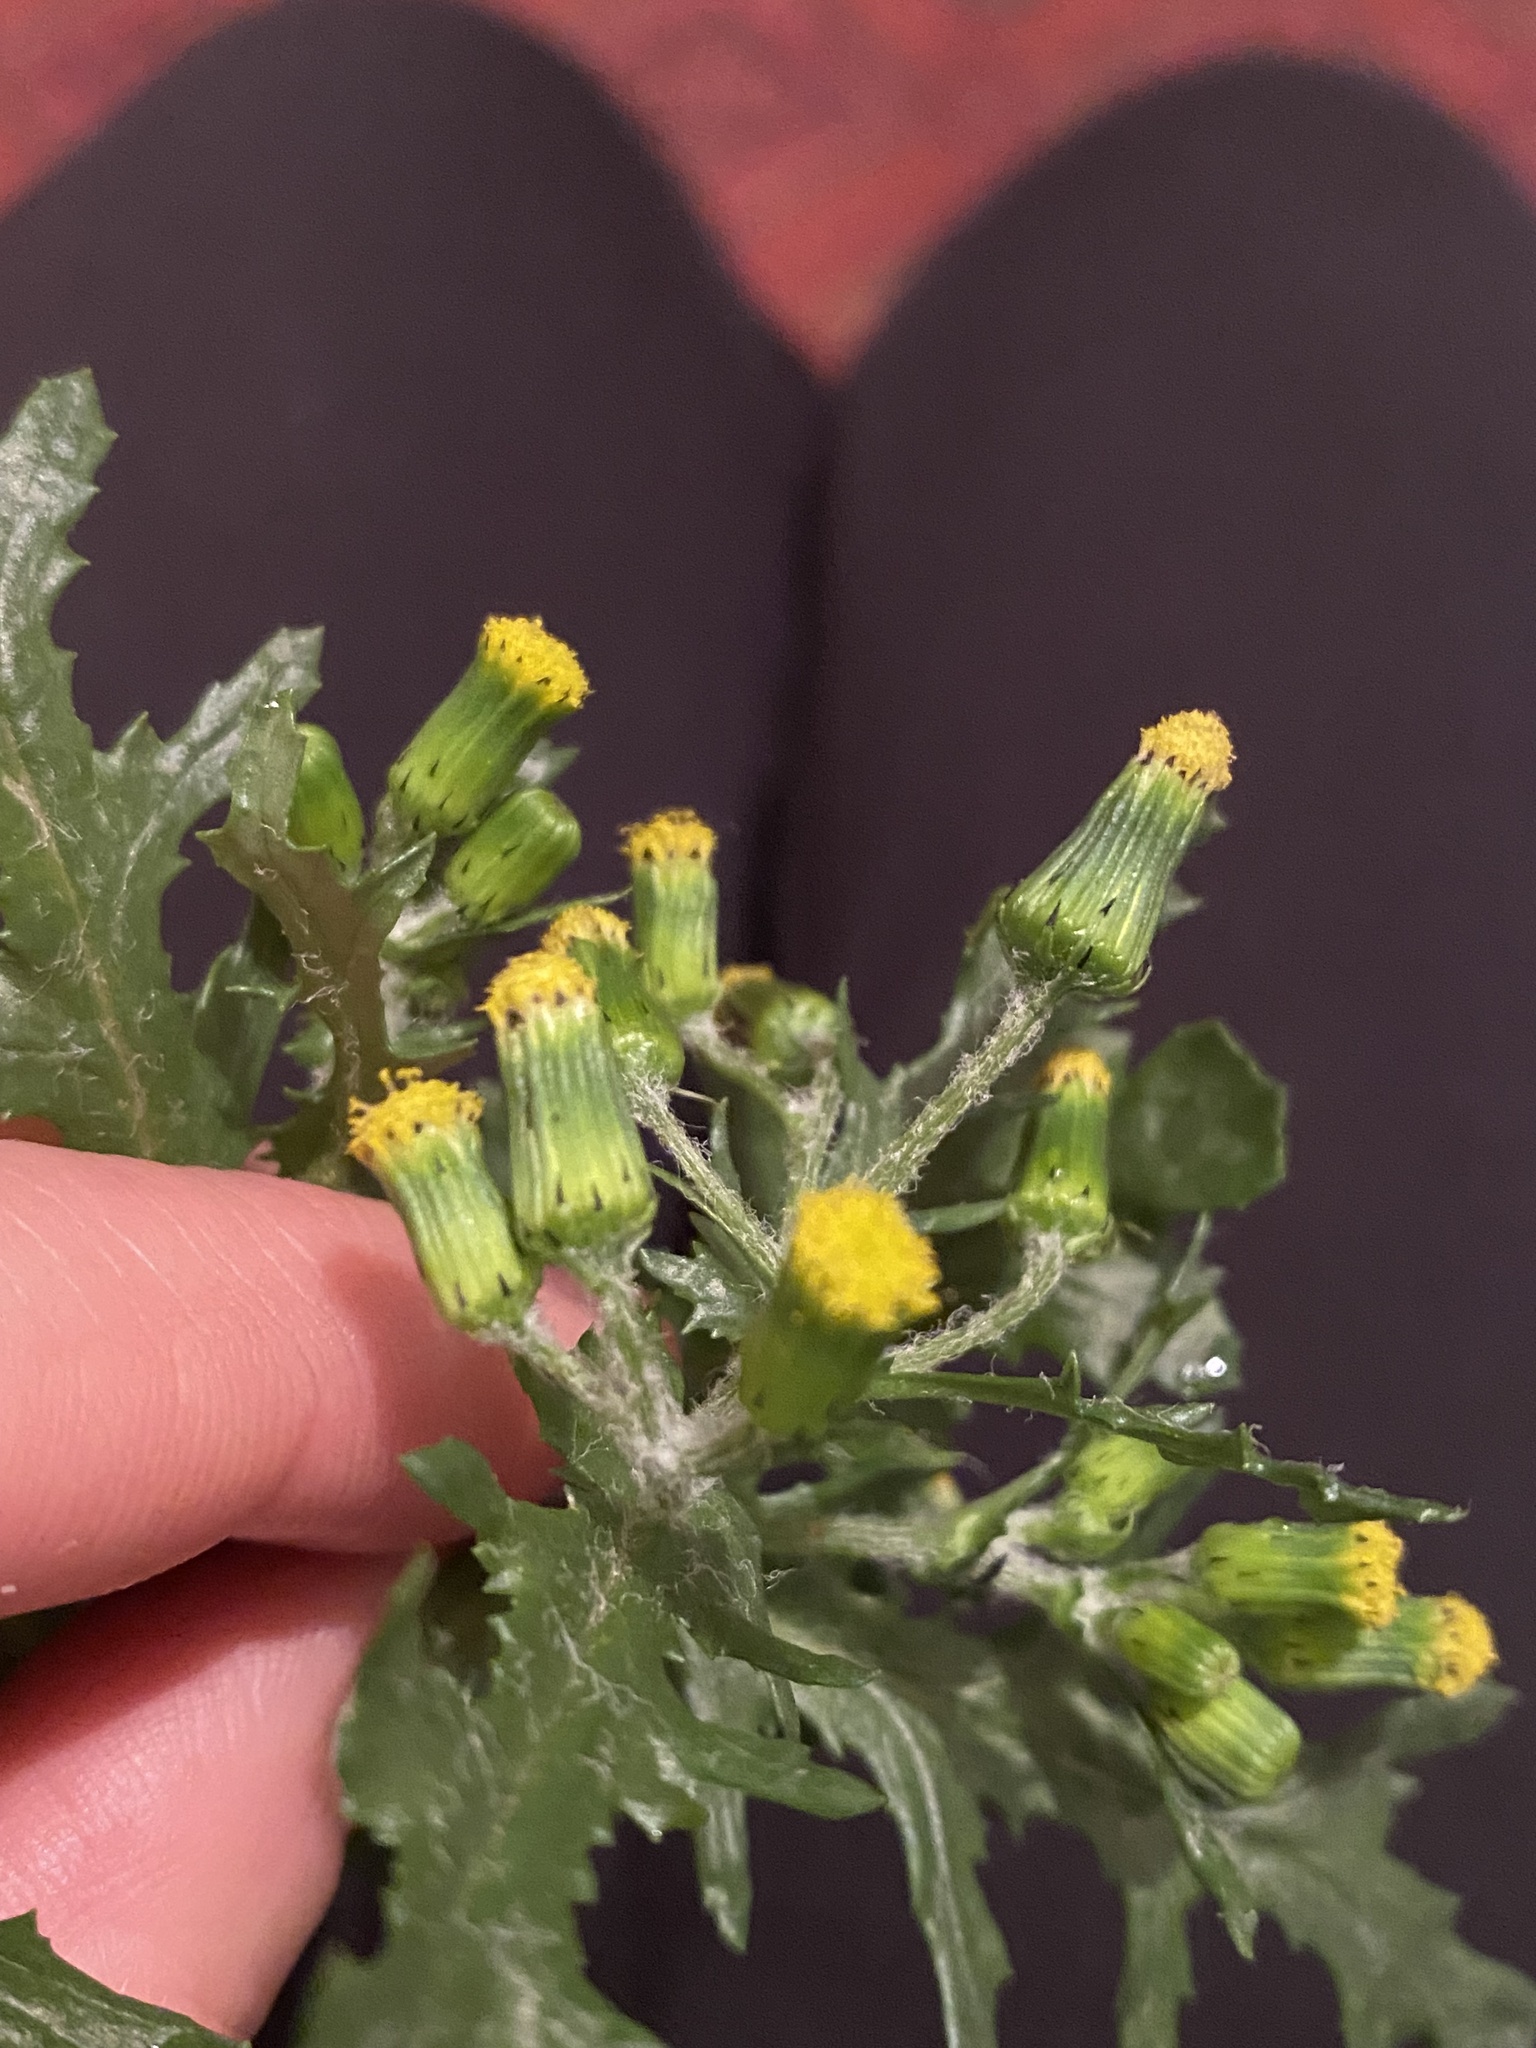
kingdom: Plantae
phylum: Tracheophyta
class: Magnoliopsida
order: Asterales
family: Asteraceae
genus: Senecio
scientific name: Senecio vulgaris
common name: Old-man-in-the-spring
